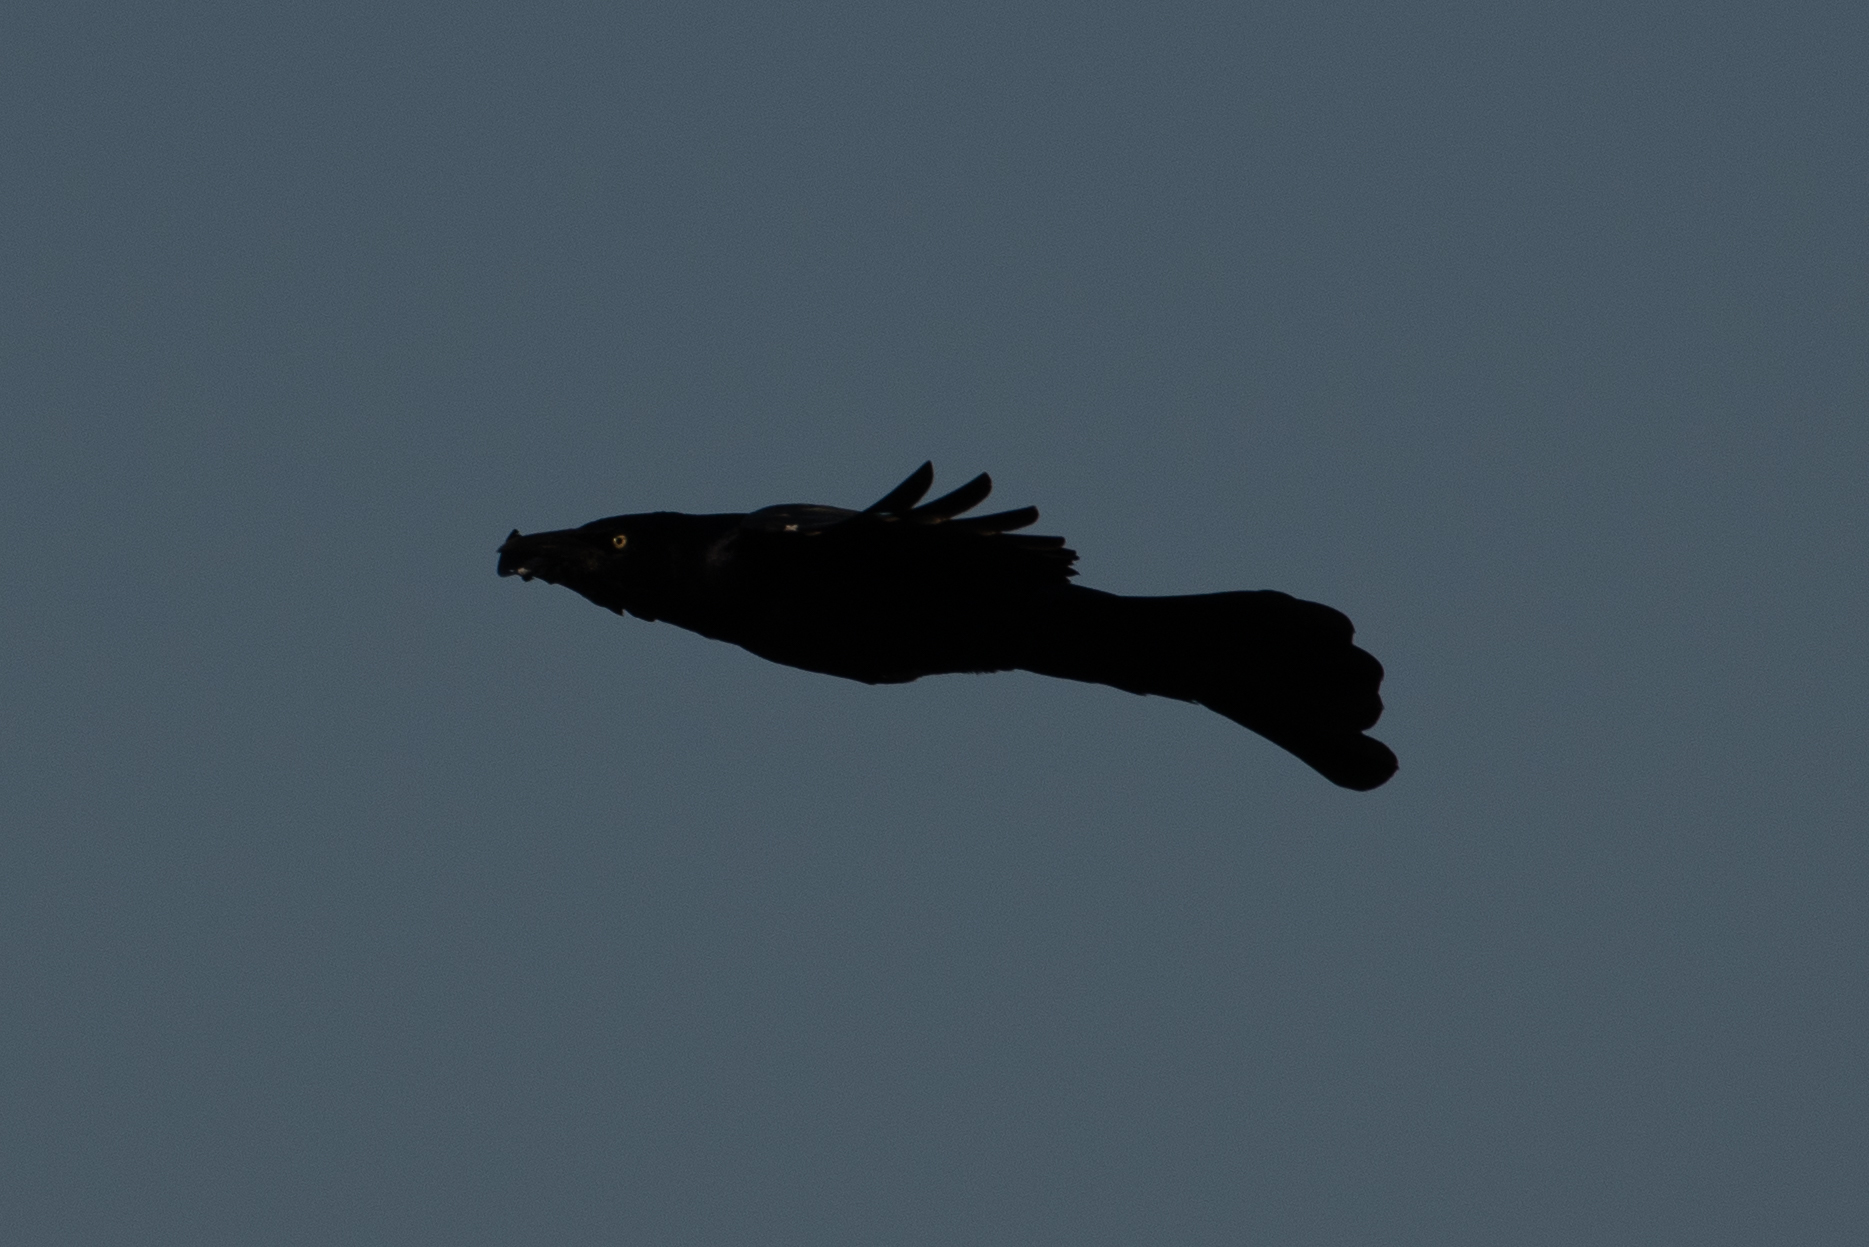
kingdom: Animalia
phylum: Chordata
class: Aves
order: Passeriformes
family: Icteridae
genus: Quiscalus
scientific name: Quiscalus mexicanus
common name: Great-tailed grackle
